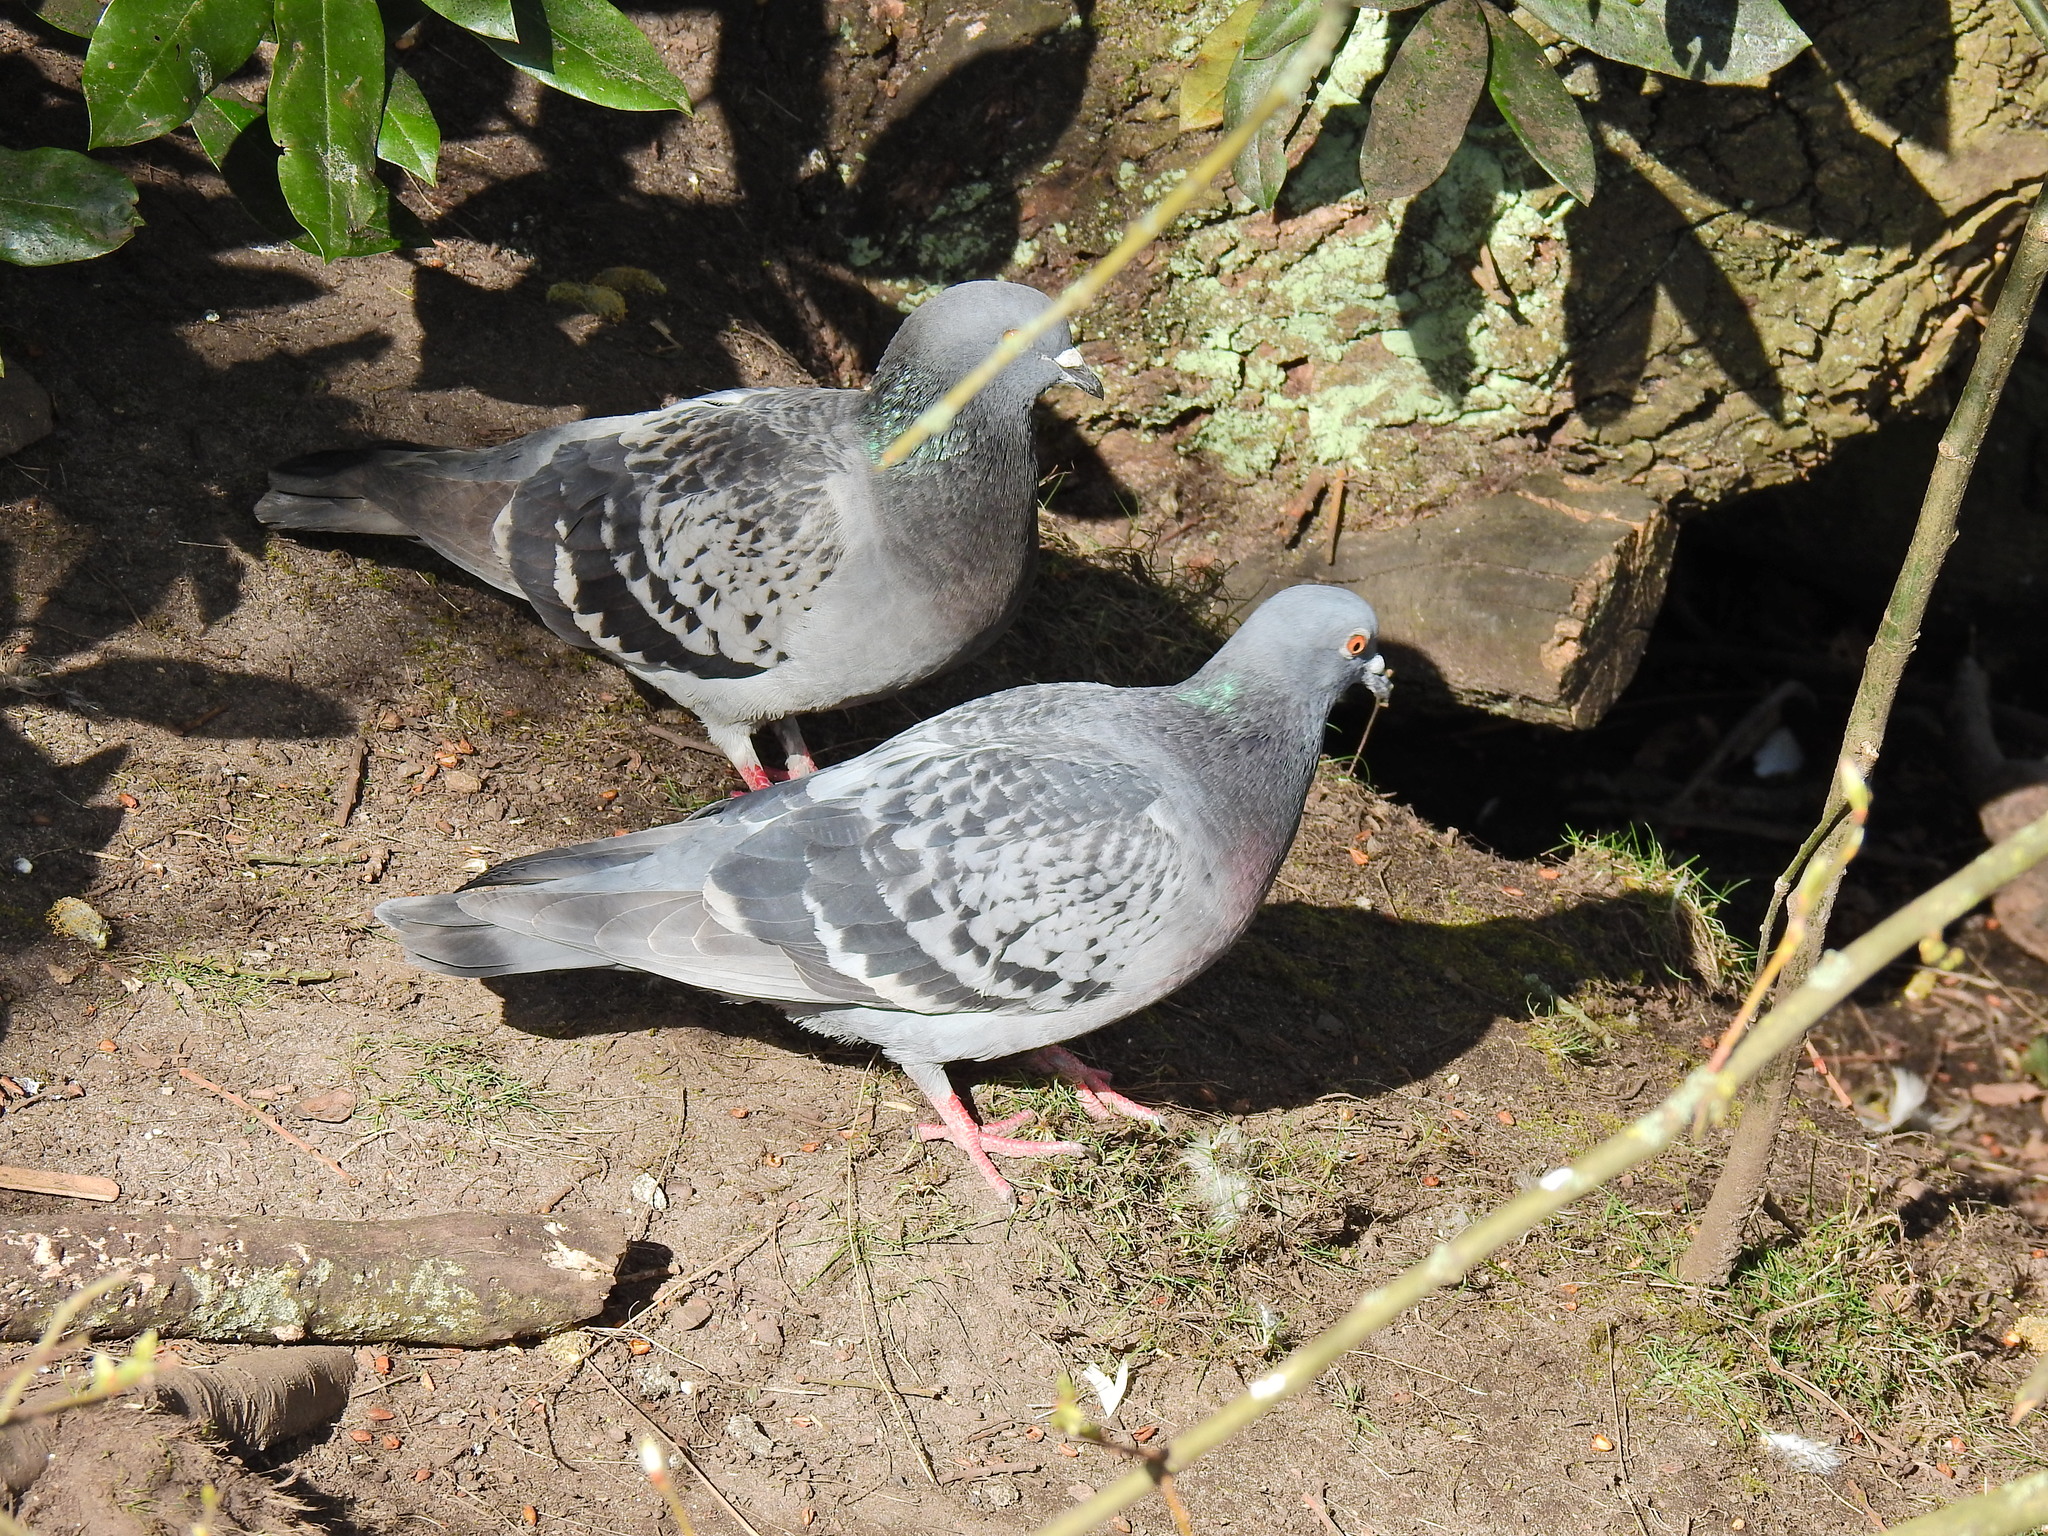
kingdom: Animalia
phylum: Chordata
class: Aves
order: Columbiformes
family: Columbidae
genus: Columba
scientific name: Columba livia
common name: Rock pigeon
